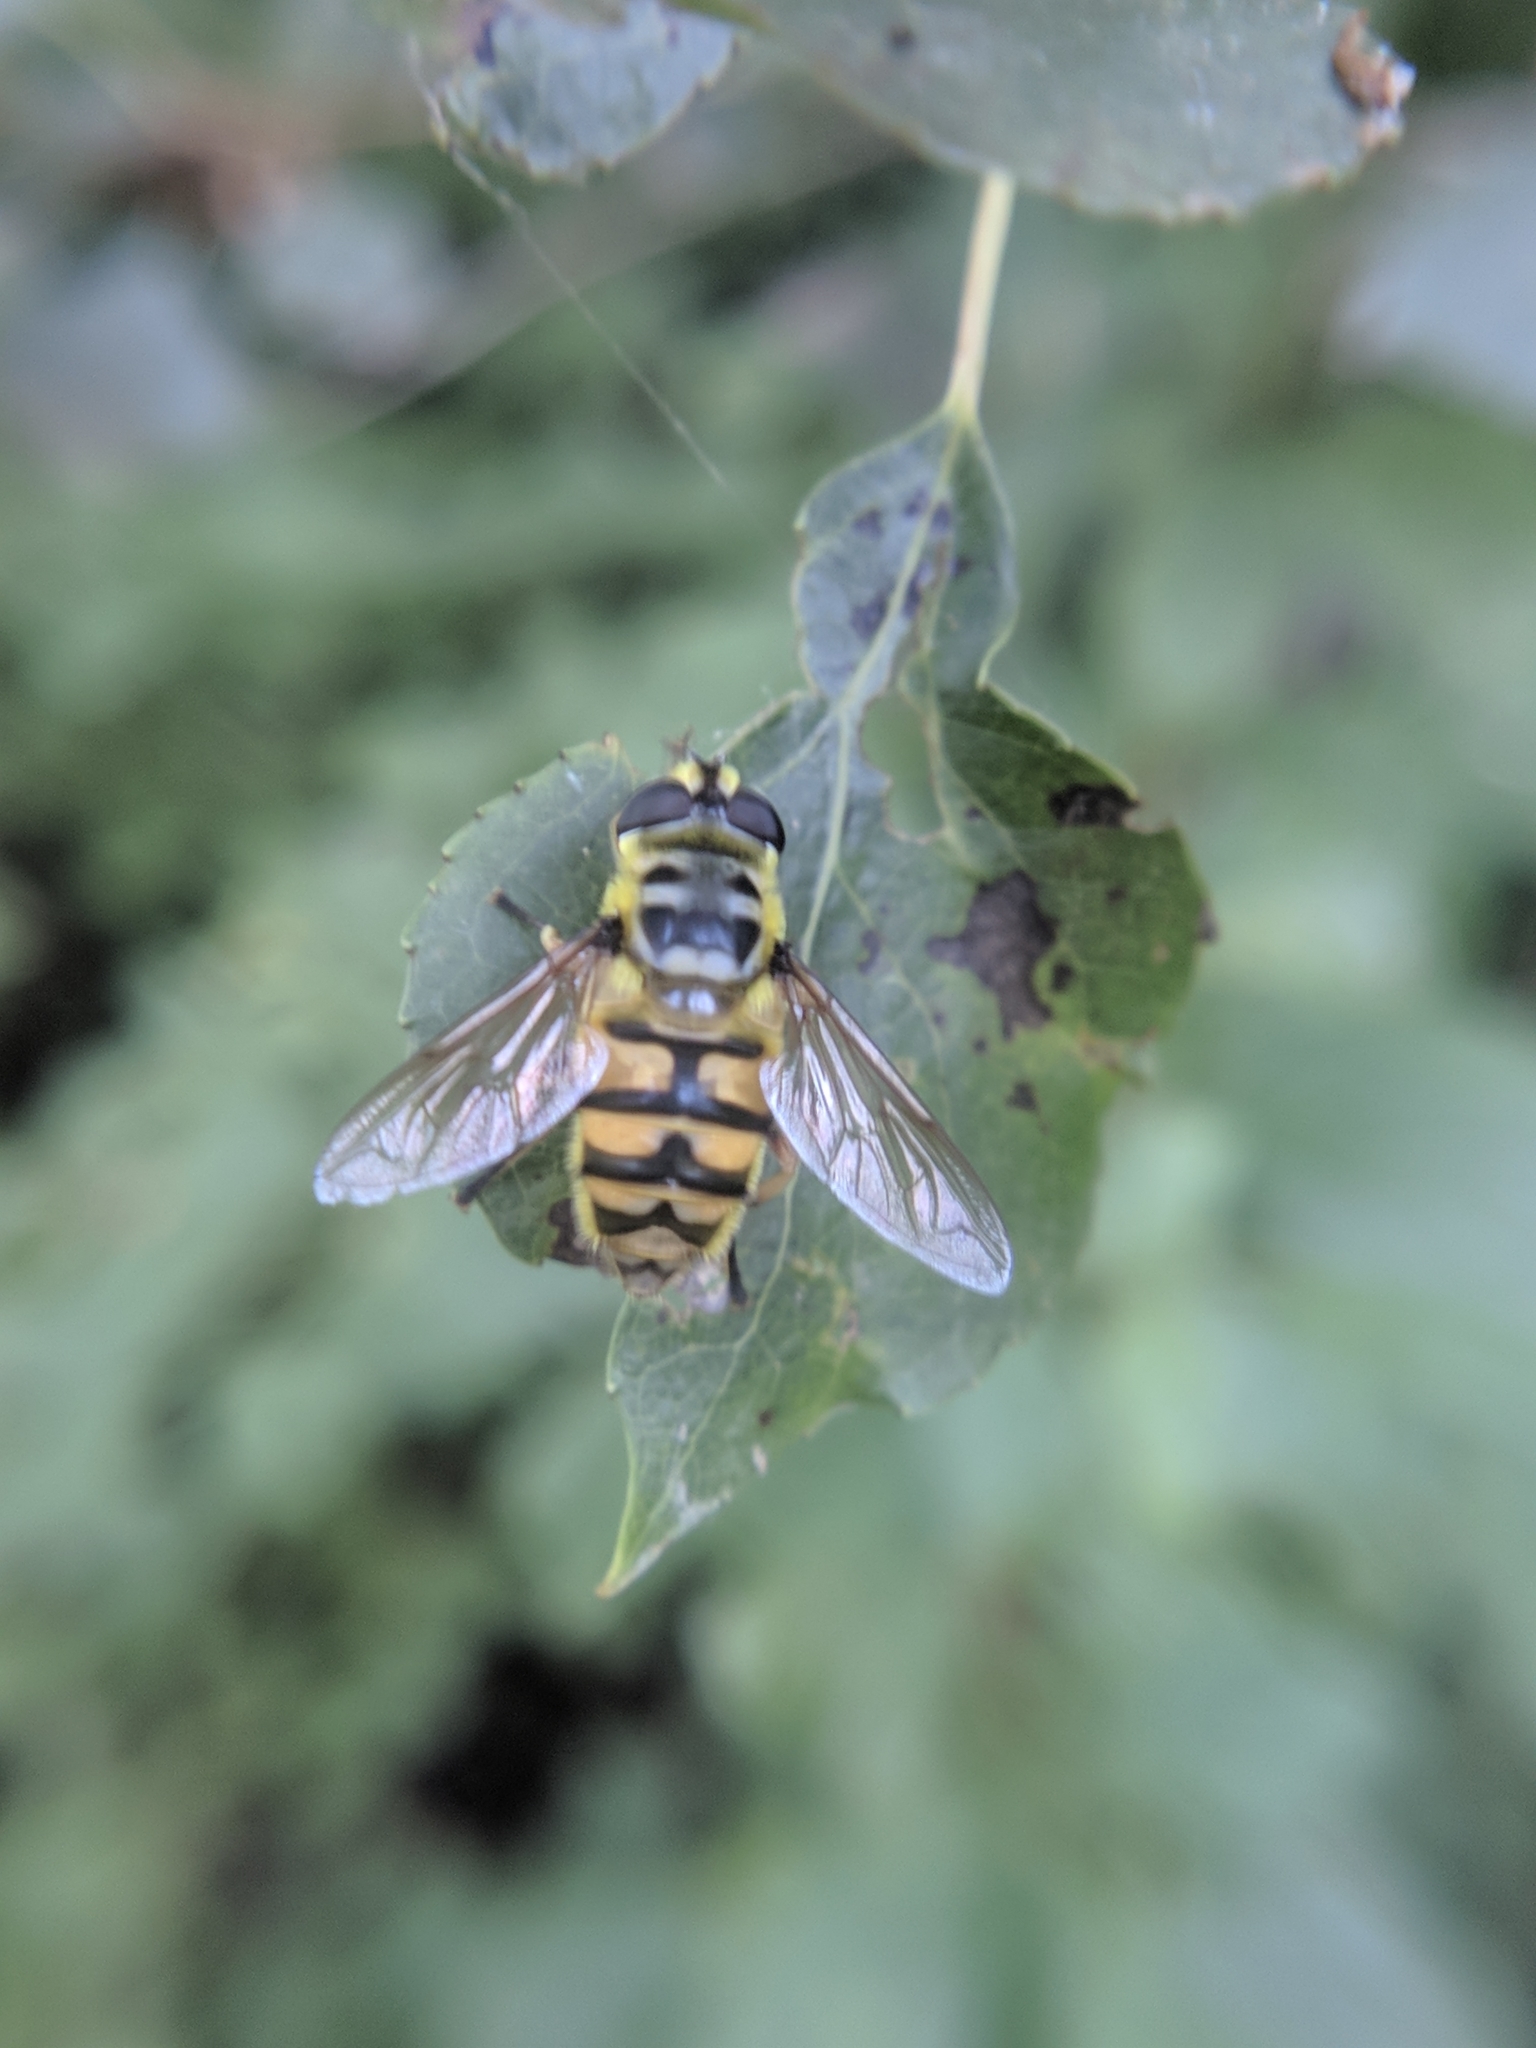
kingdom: Animalia
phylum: Arthropoda
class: Insecta
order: Diptera
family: Syrphidae
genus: Myathropa
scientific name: Myathropa florea
